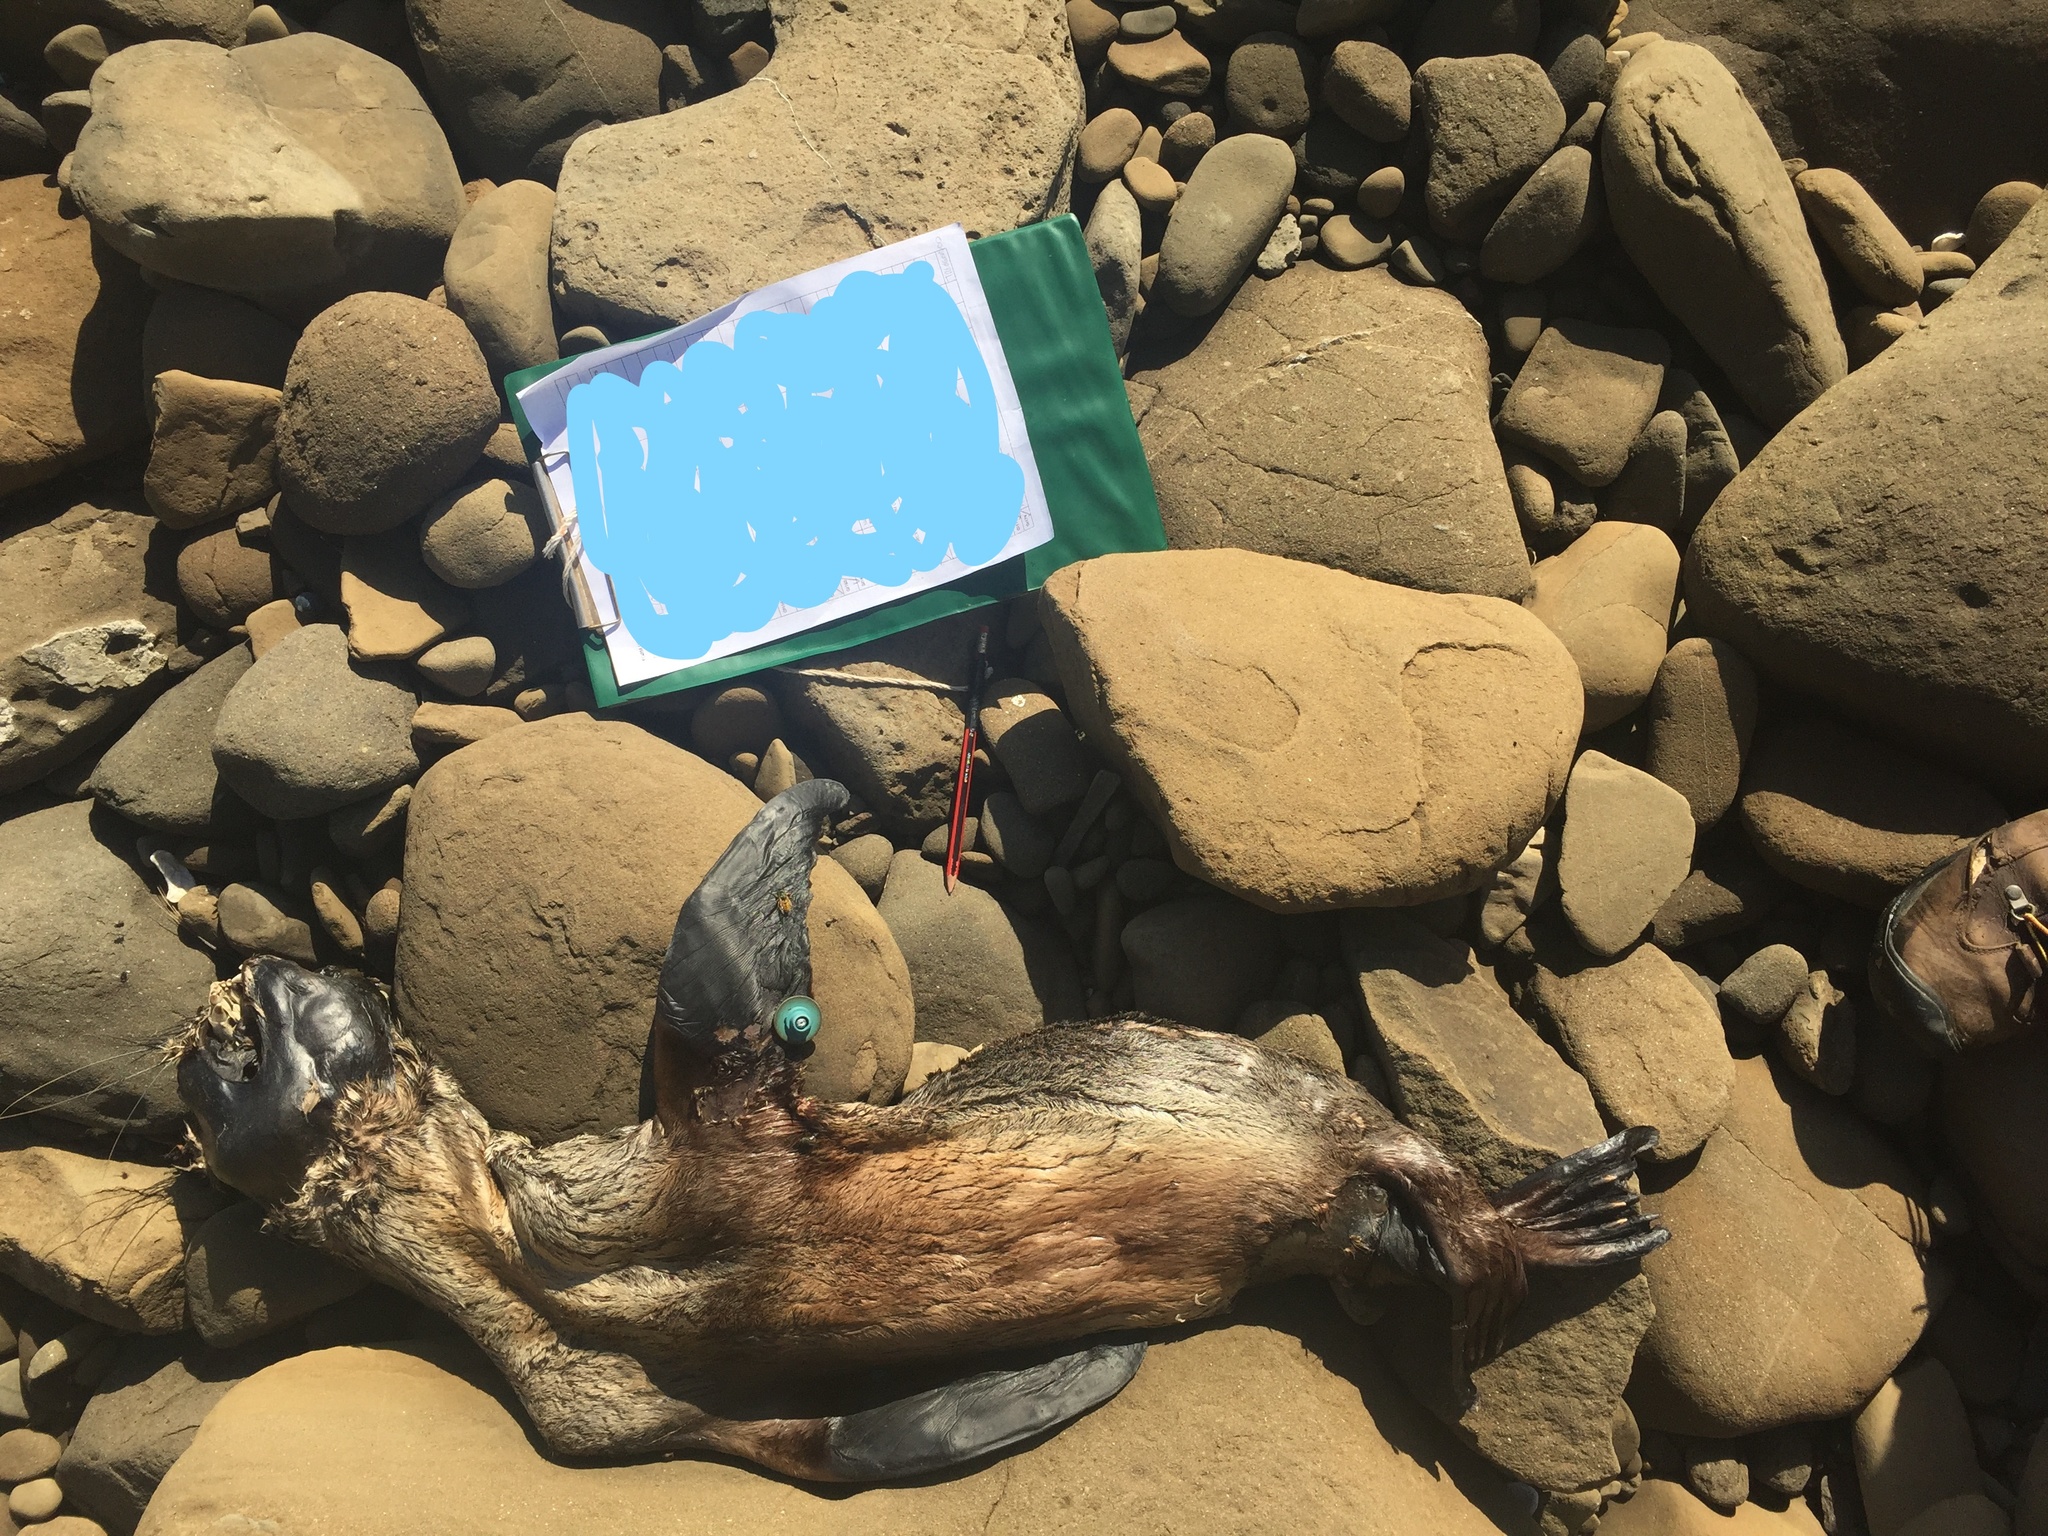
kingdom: Animalia
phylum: Chordata
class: Mammalia
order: Carnivora
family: Otariidae
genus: Arctocephalus
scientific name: Arctocephalus forsteri
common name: New zealand fur seal
